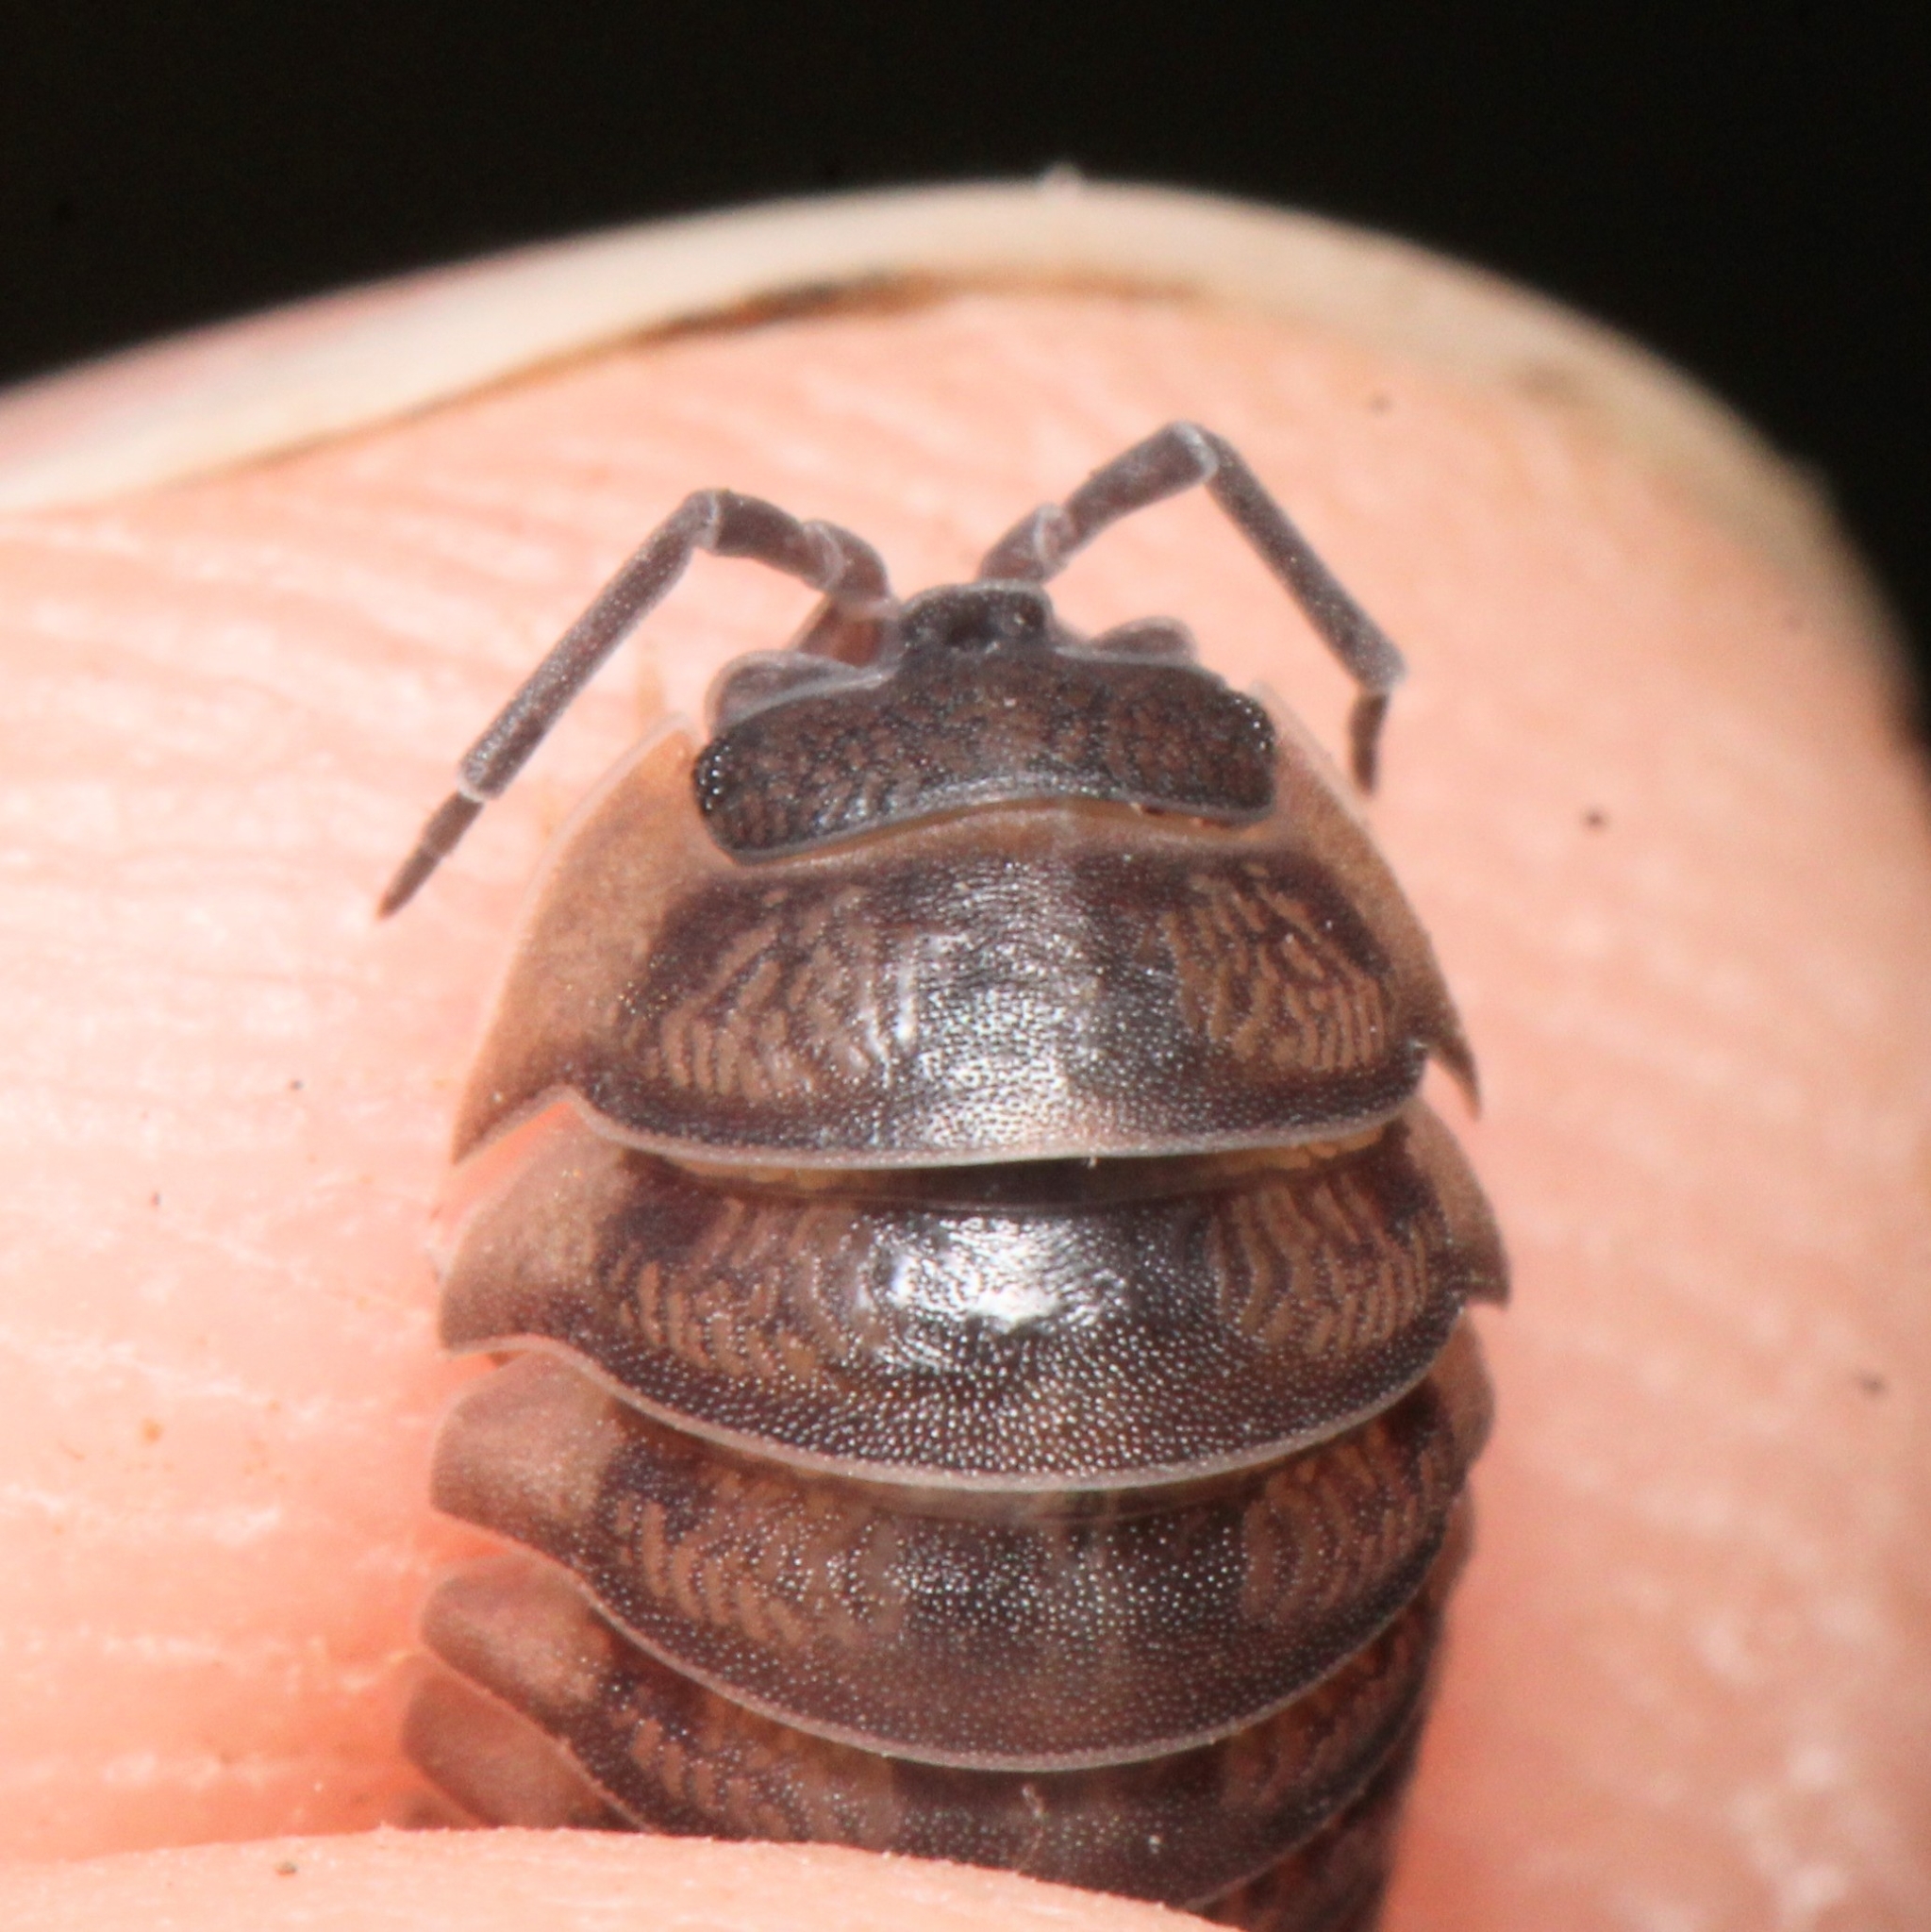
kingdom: Animalia
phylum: Arthropoda
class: Malacostraca
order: Isopoda
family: Armadillidiidae
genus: Armadillidium
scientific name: Armadillidium nasatum
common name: Isopod
